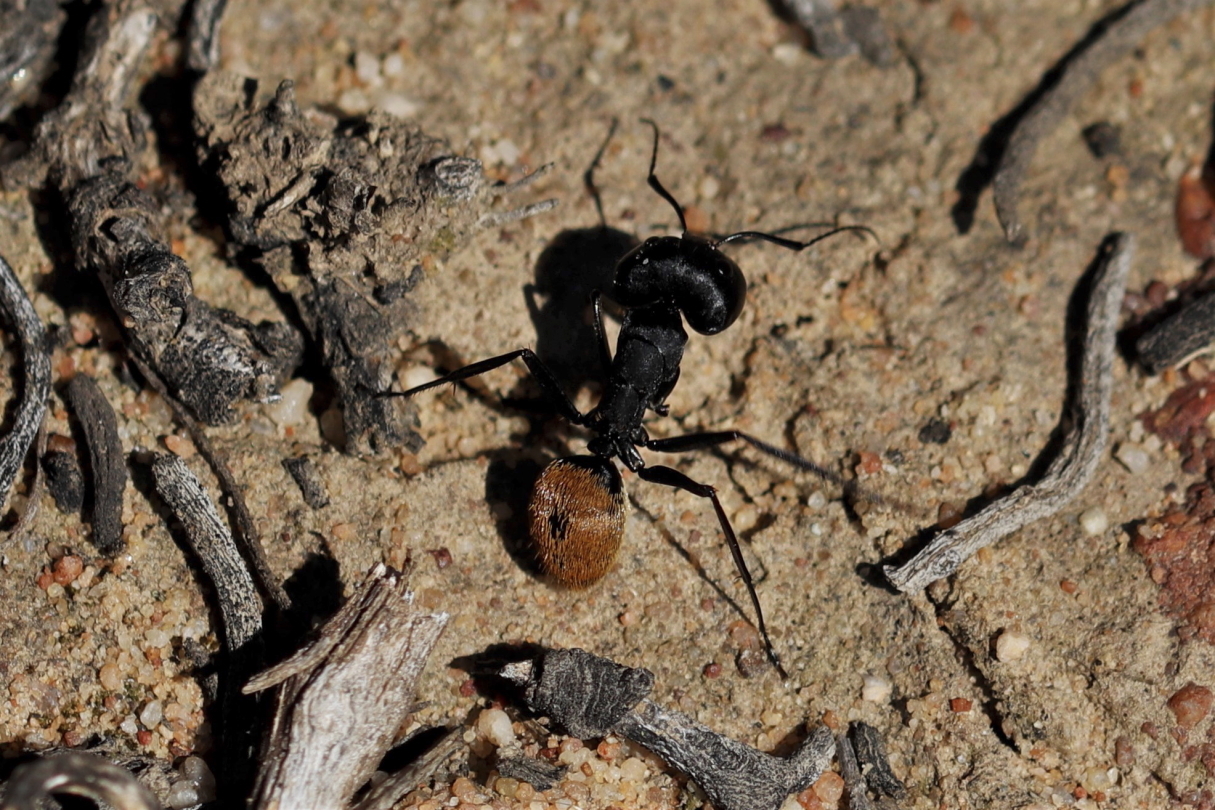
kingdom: Animalia
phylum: Arthropoda
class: Insecta
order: Hymenoptera
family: Formicidae
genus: Camponotus
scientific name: Camponotus fulvopilosus
